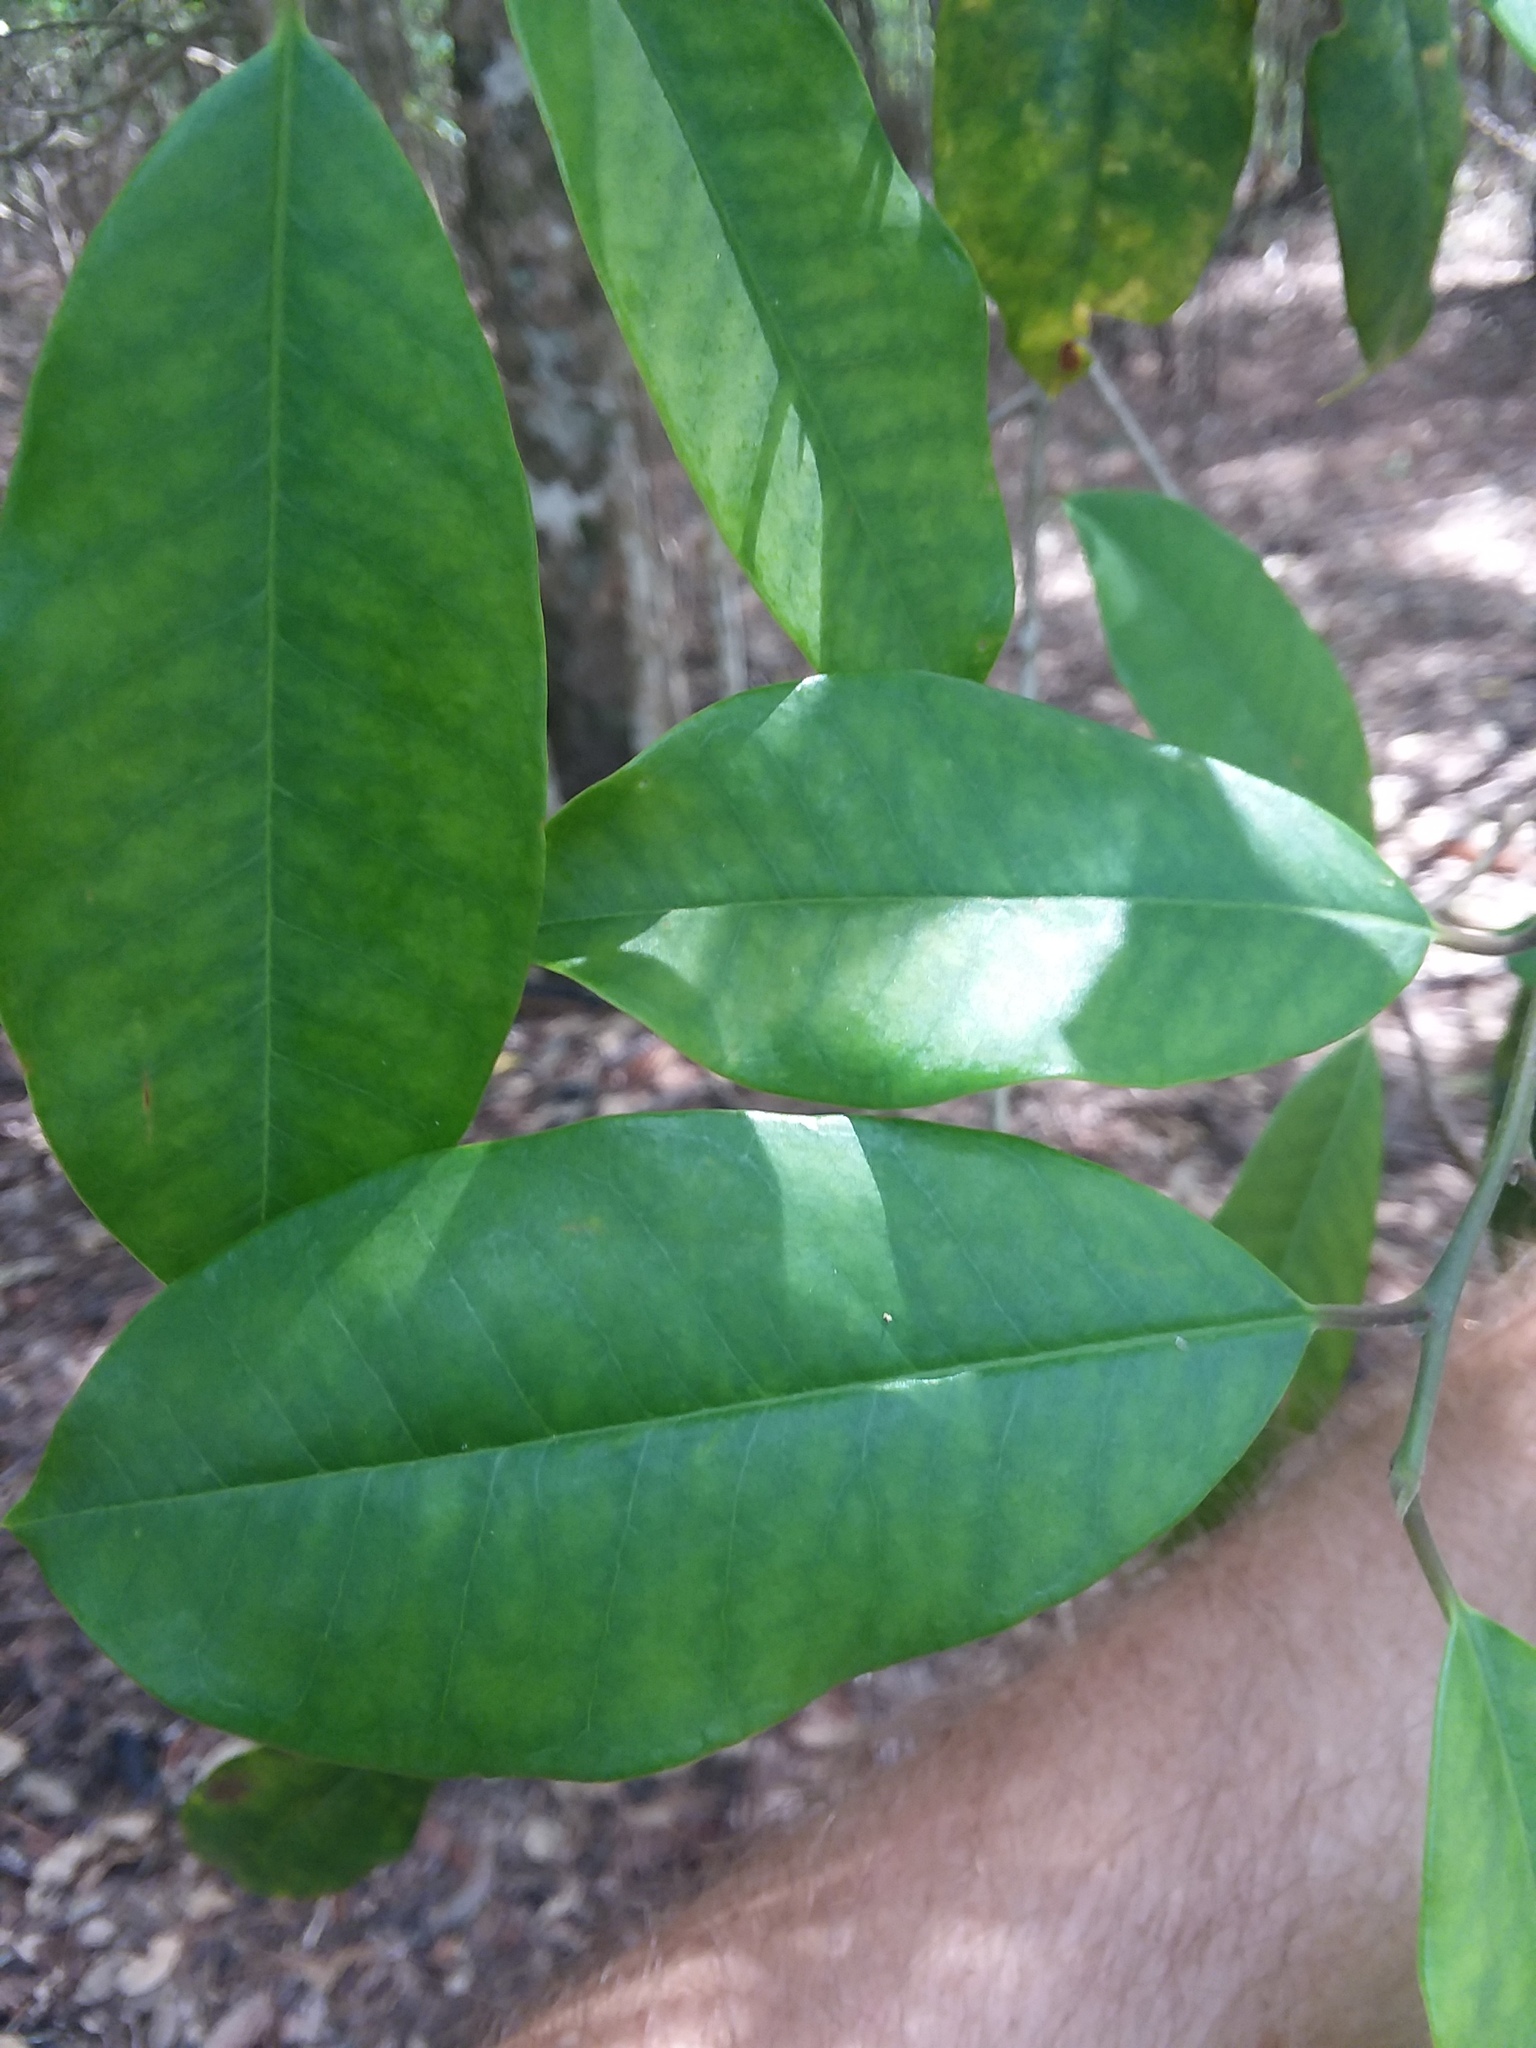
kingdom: Plantae
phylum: Tracheophyta
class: Magnoliopsida
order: Aquifoliales
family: Aquifoliaceae
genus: Ilex
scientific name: Ilex opaca
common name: American holly
